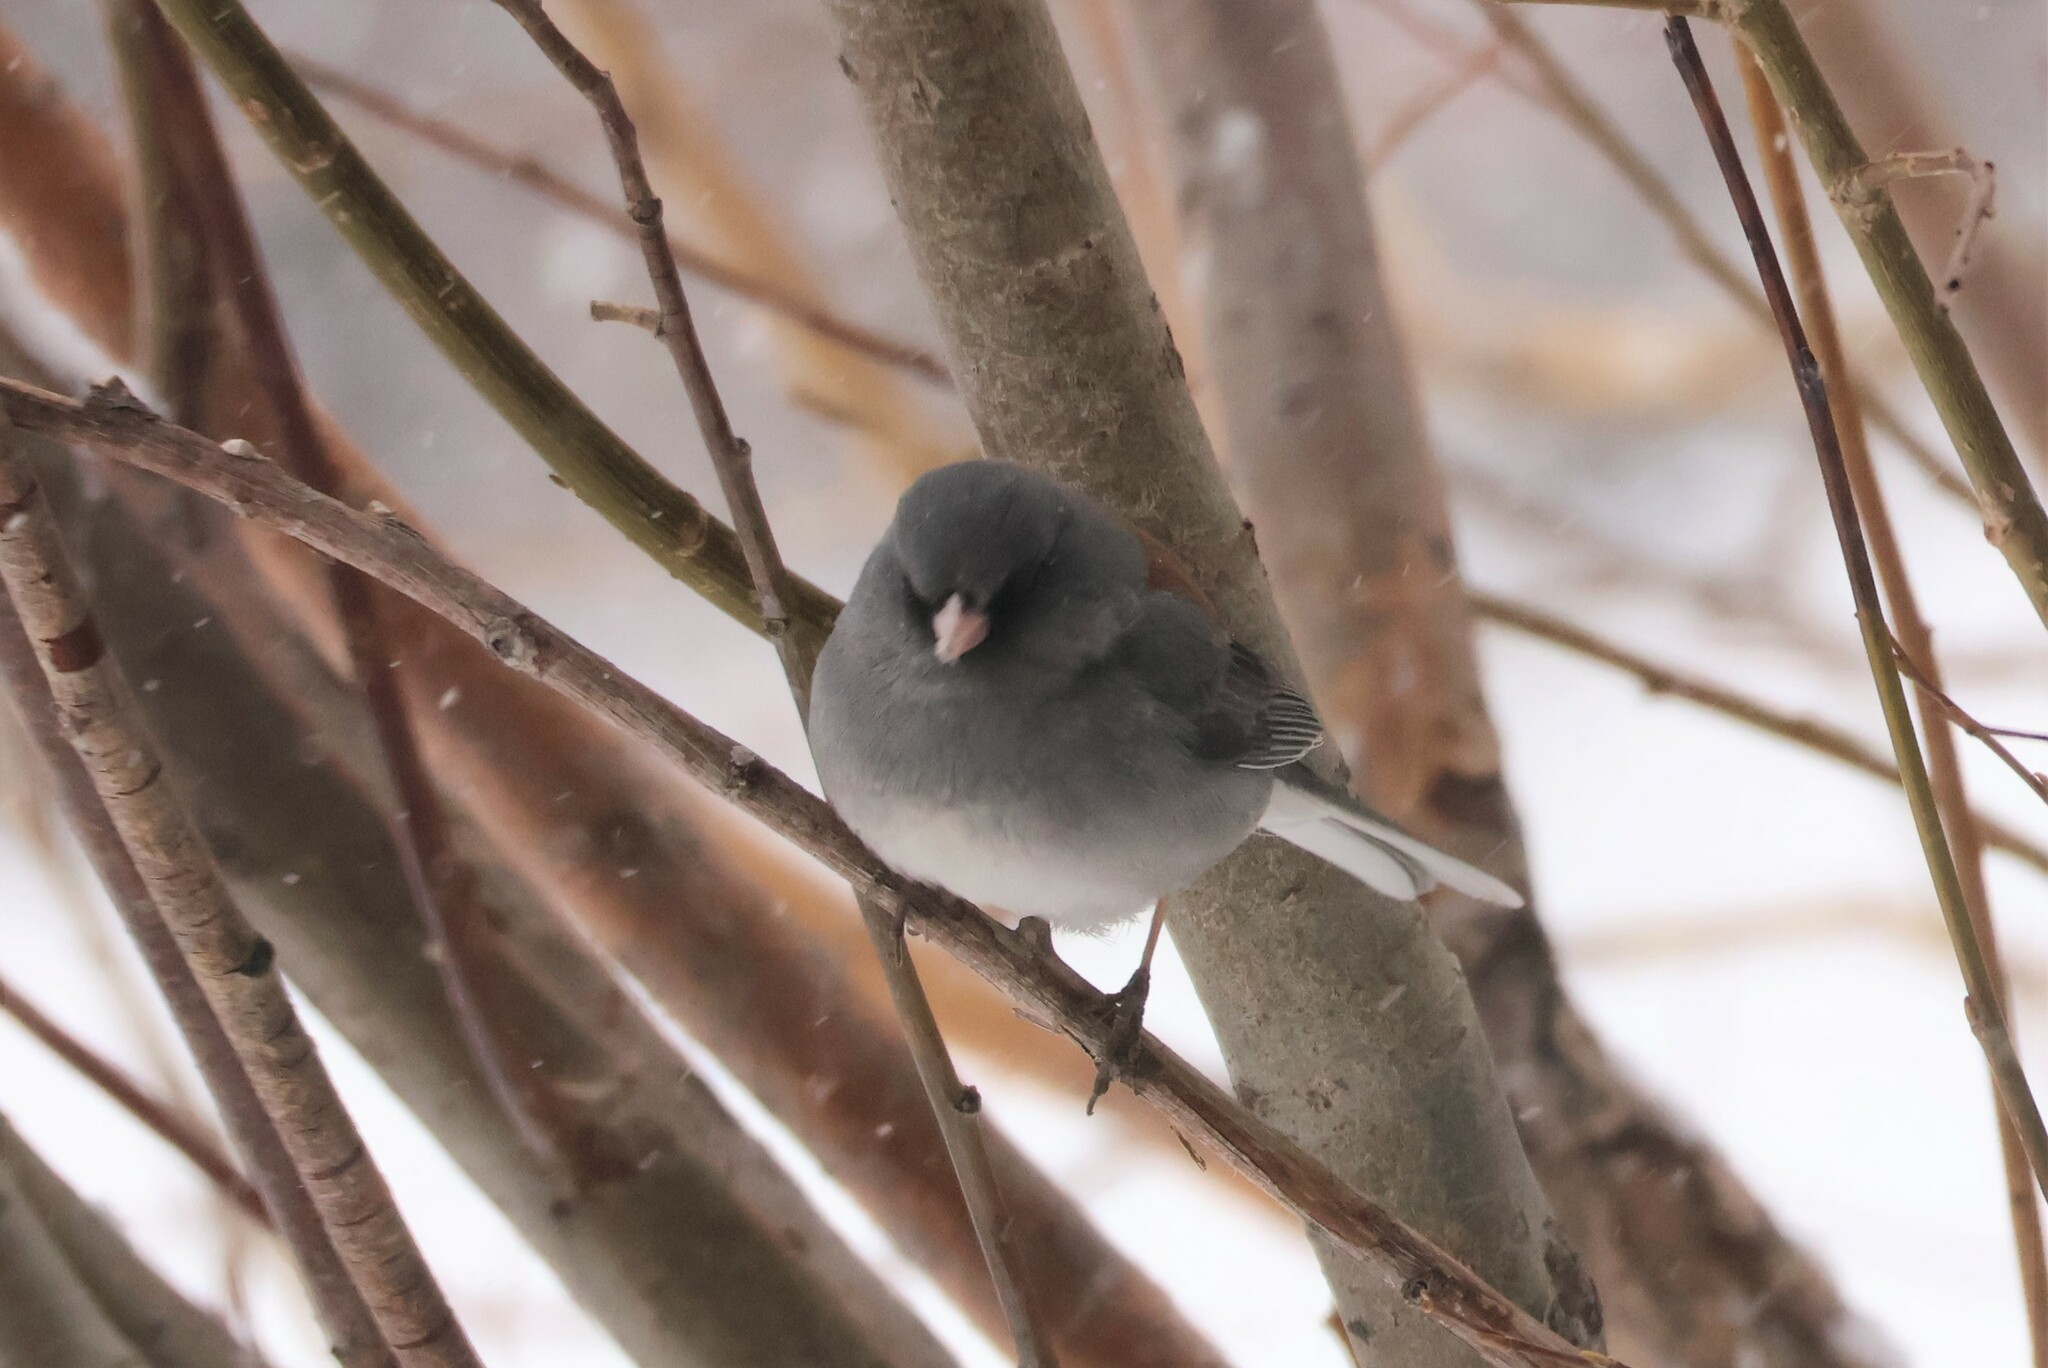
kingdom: Animalia
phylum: Chordata
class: Aves
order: Passeriformes
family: Passerellidae
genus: Junco
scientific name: Junco hyemalis
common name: Dark-eyed junco
